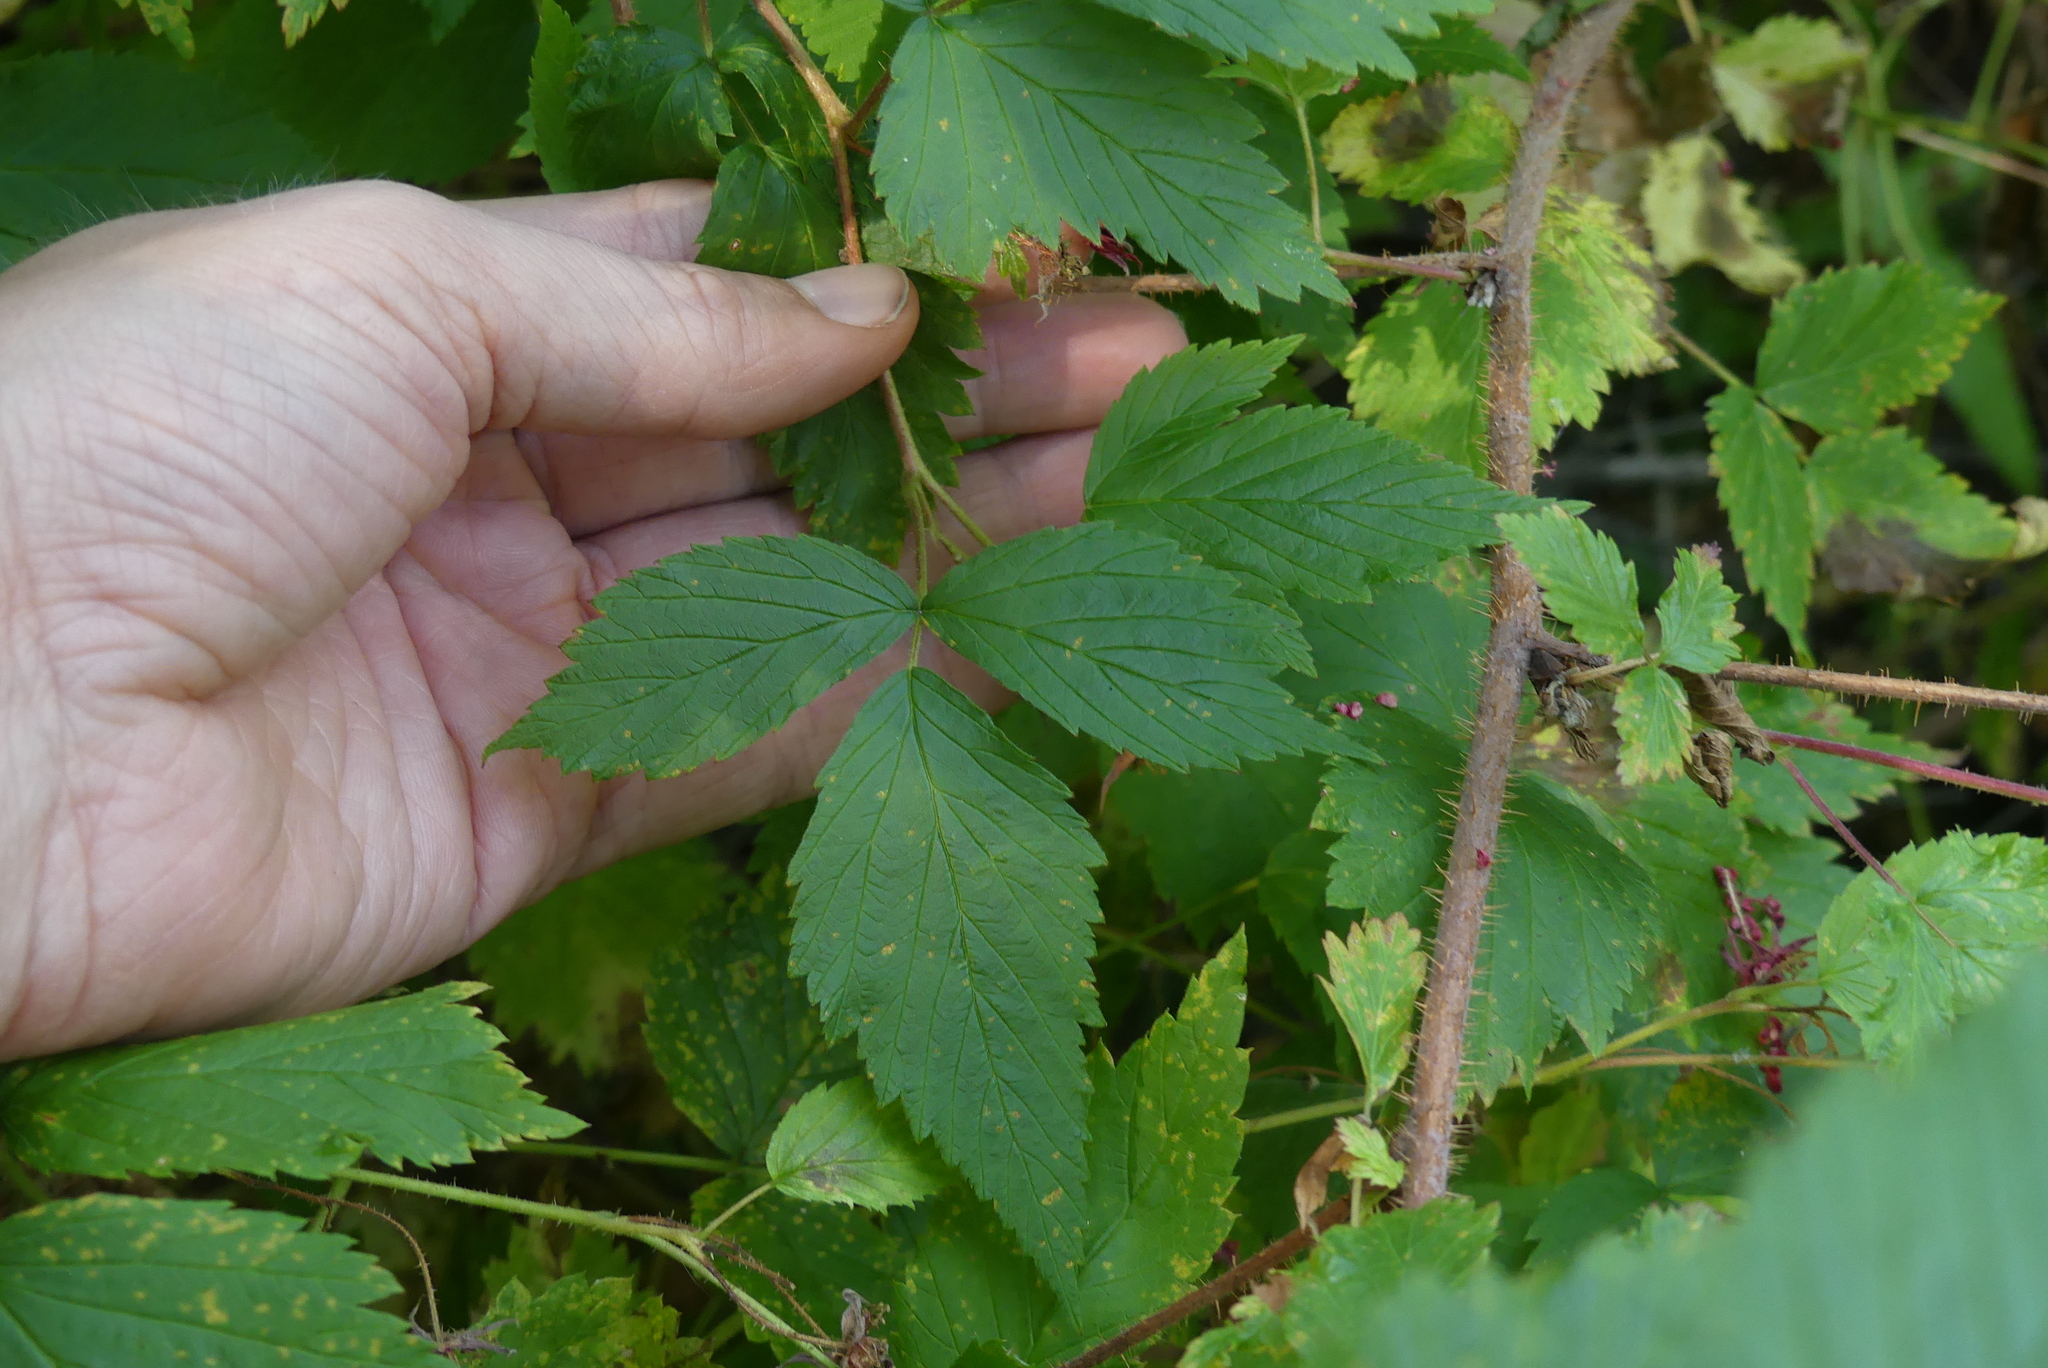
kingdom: Plantae
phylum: Tracheophyta
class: Magnoliopsida
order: Rosales
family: Rosaceae
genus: Rubus
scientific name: Rubus idaeus
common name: Raspberry
